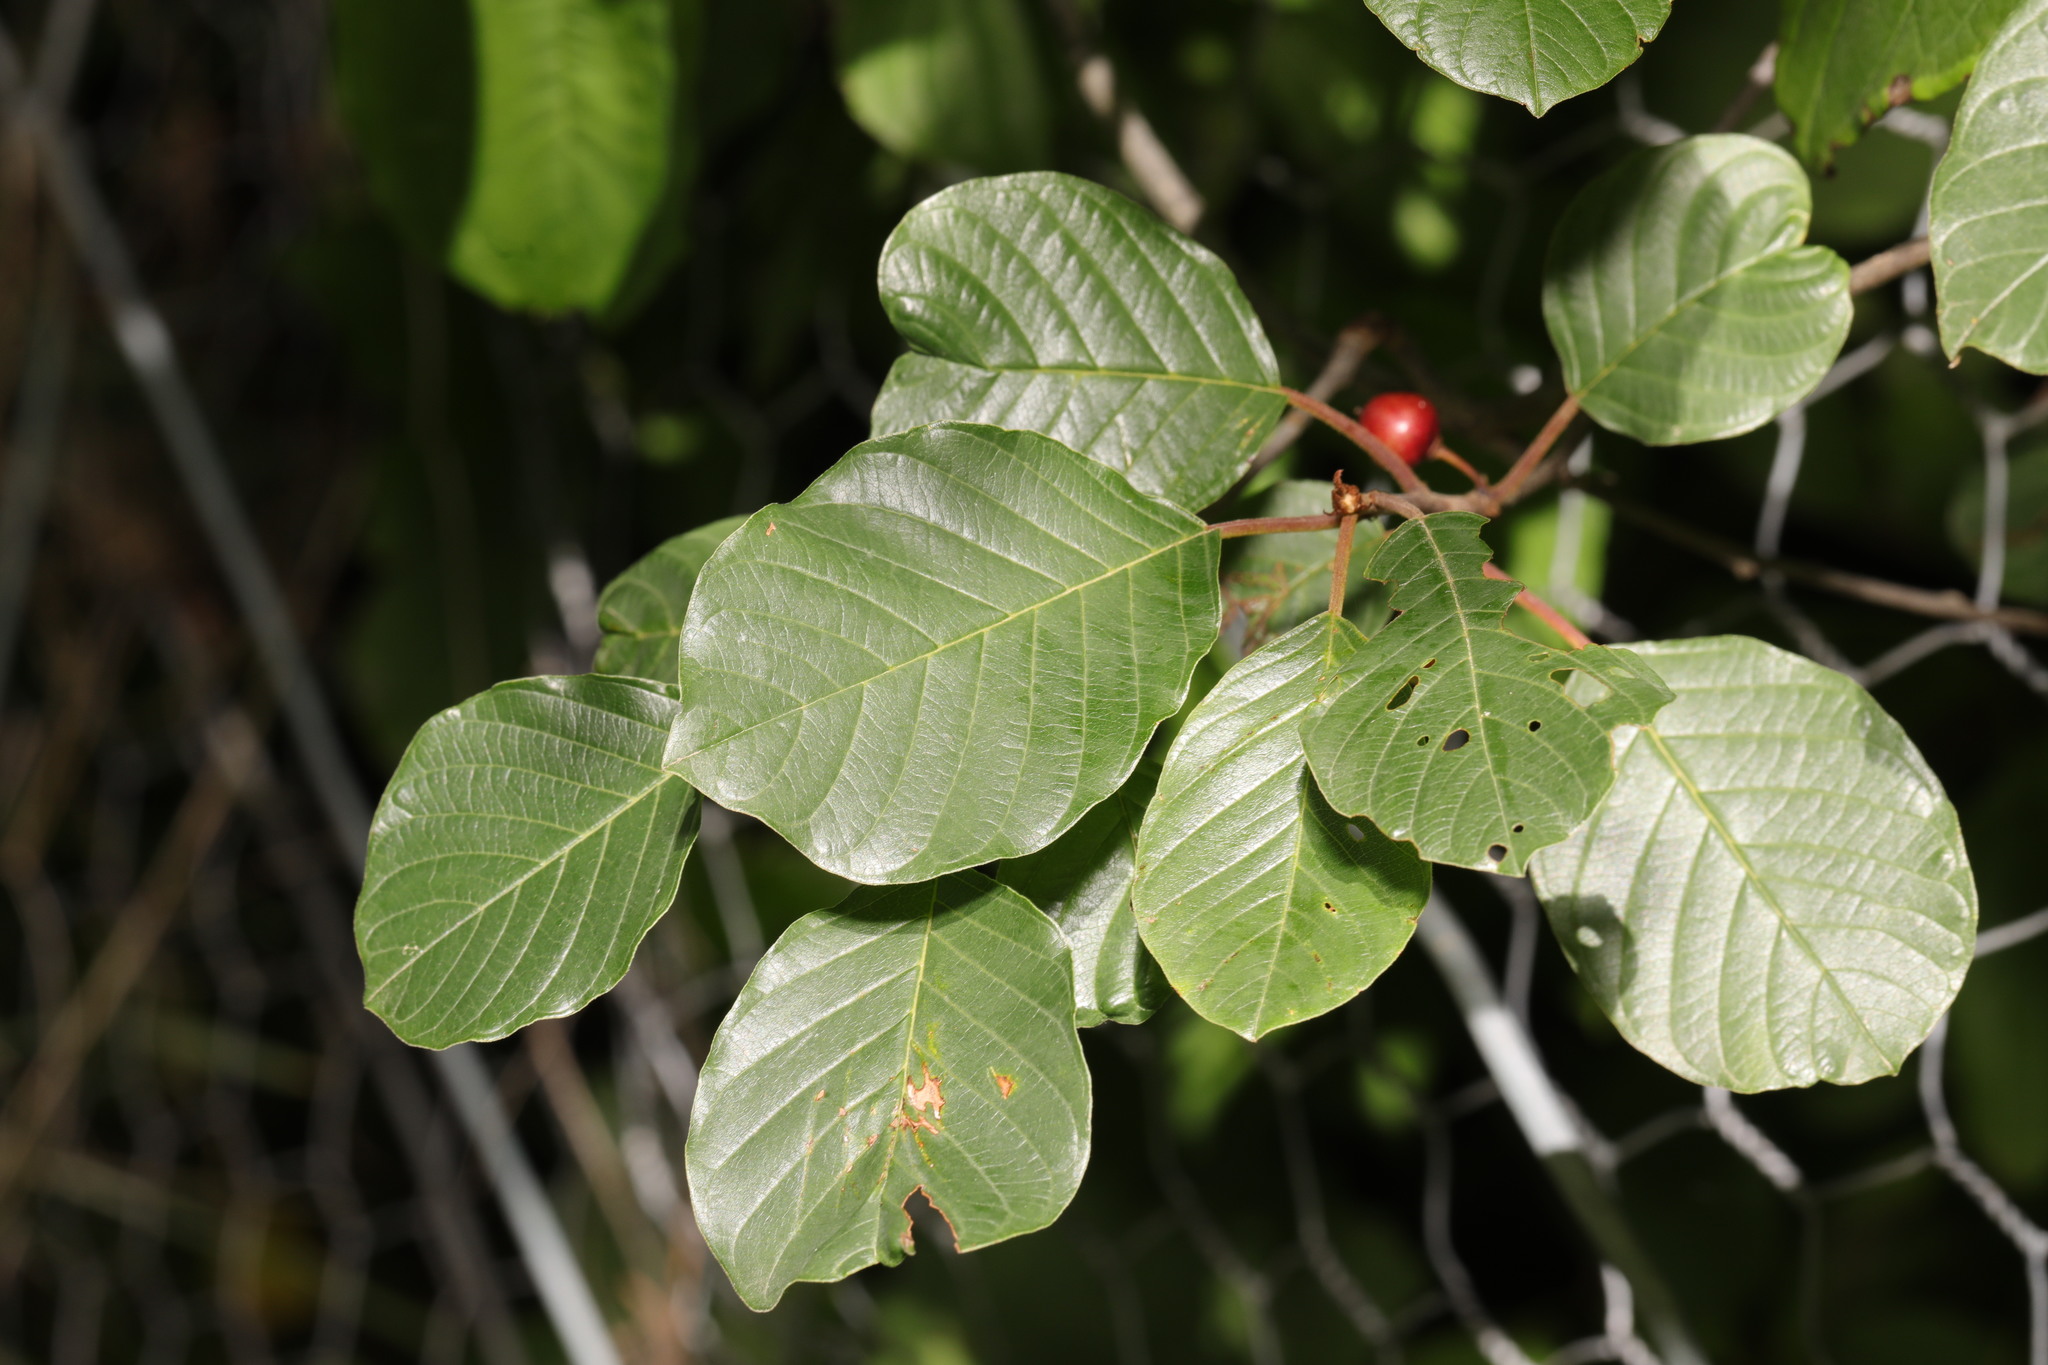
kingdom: Plantae
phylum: Tracheophyta
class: Magnoliopsida
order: Rosales
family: Rhamnaceae
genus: Frangula
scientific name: Frangula alnus
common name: Alder buckthorn
